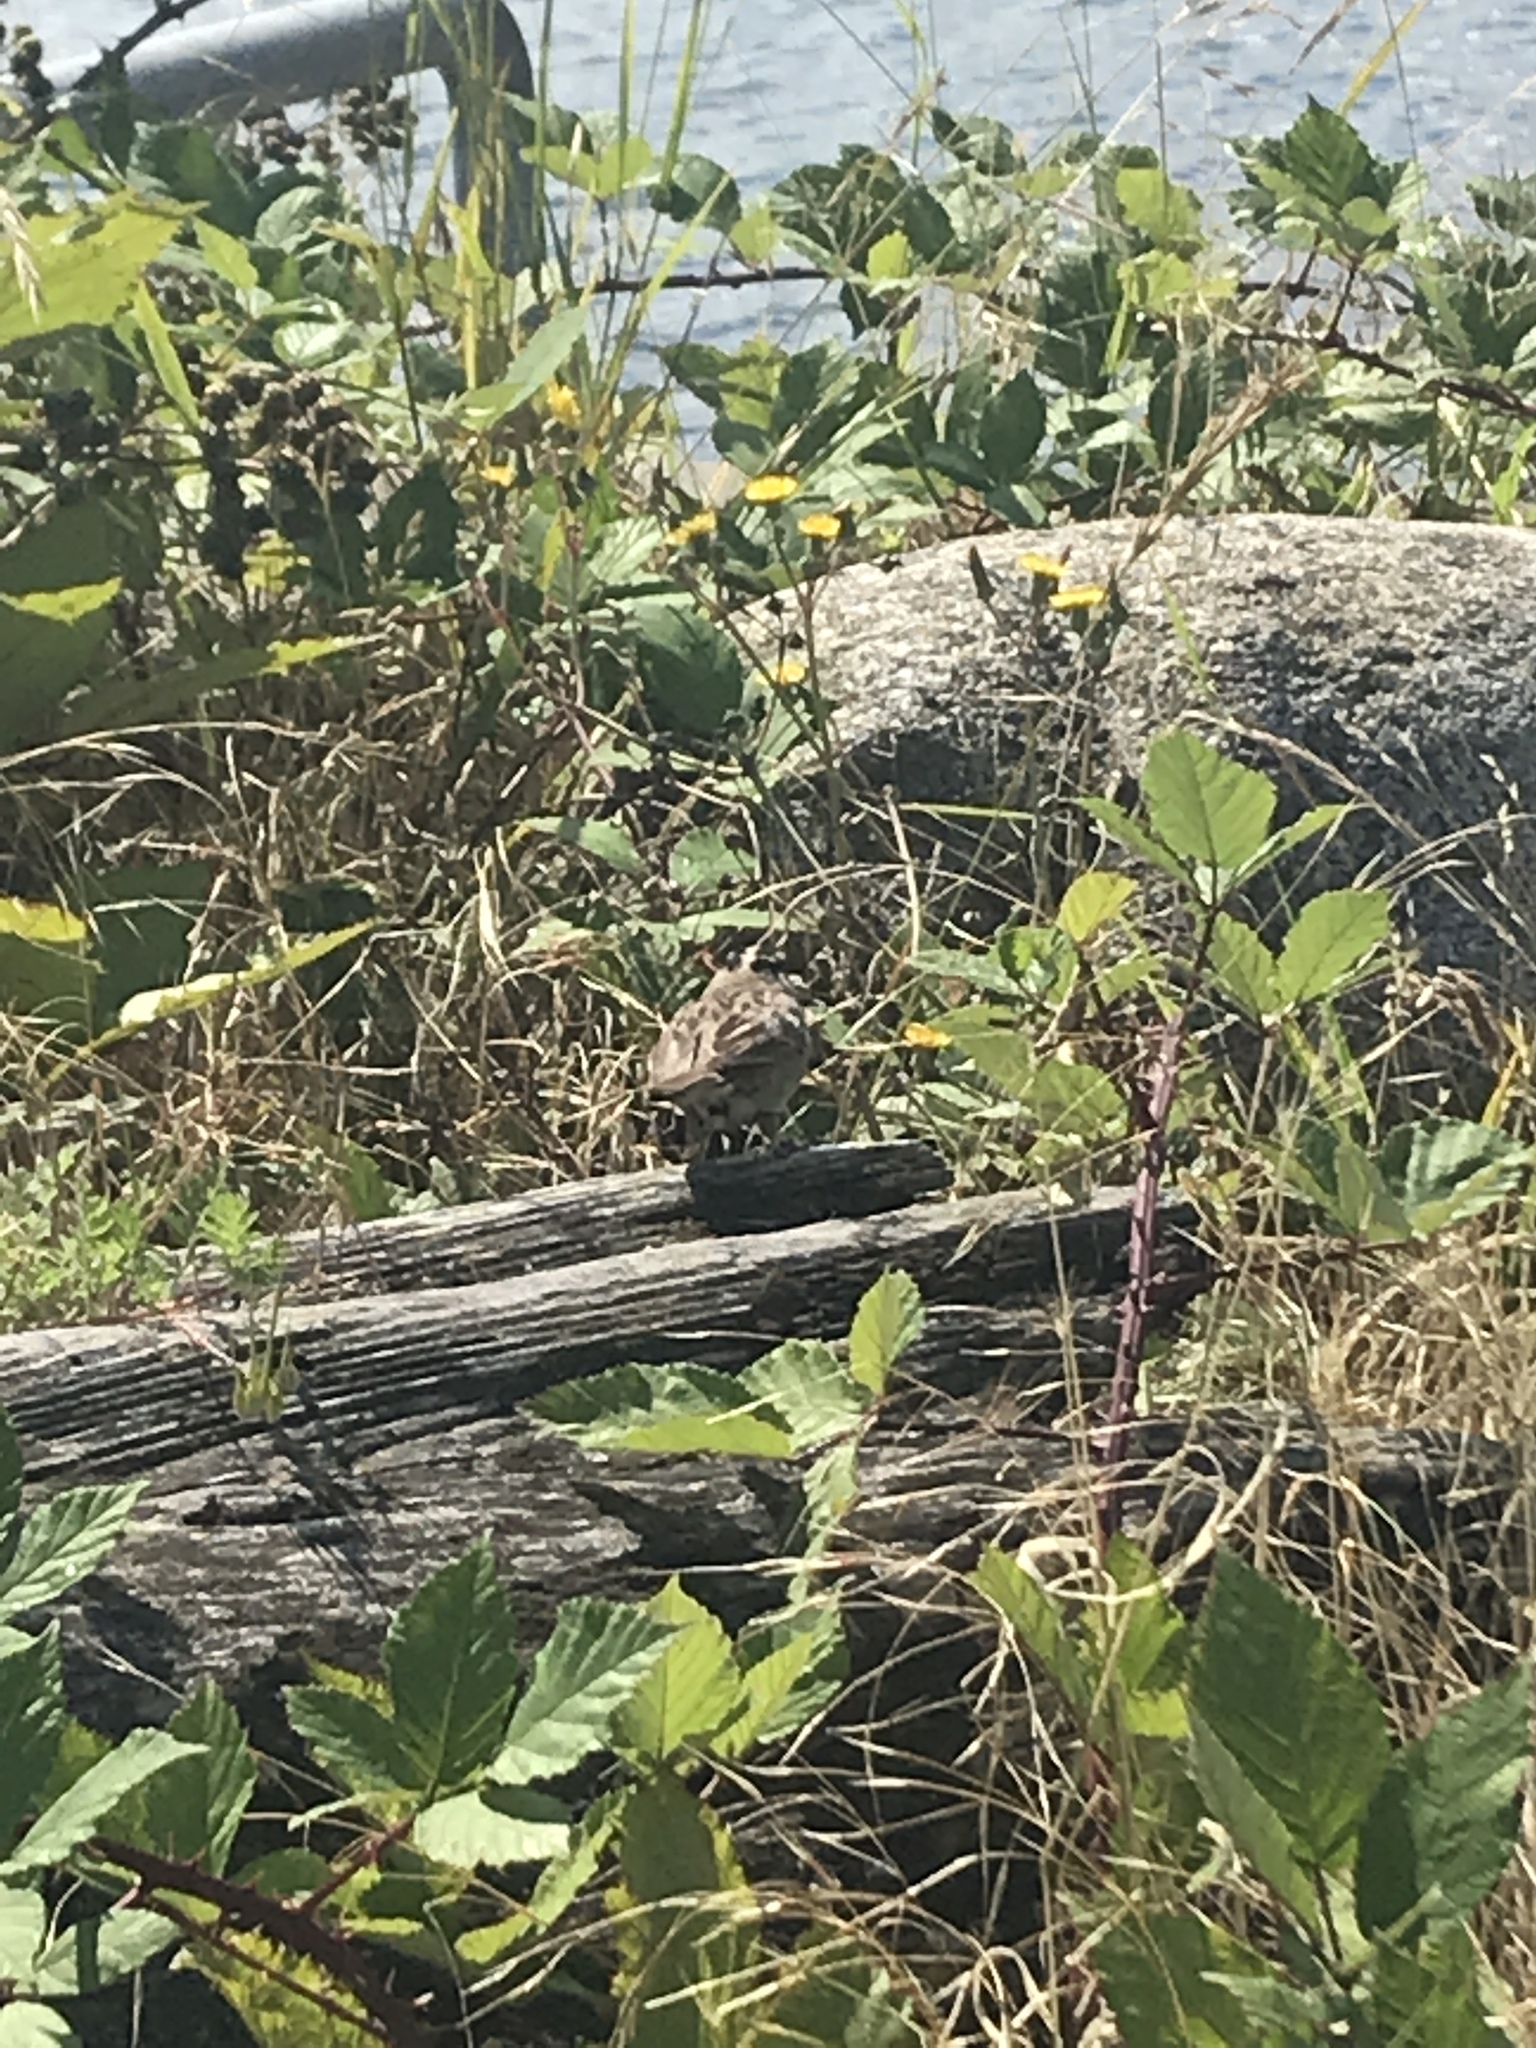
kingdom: Animalia
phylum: Chordata
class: Aves
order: Passeriformes
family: Passerellidae
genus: Zonotrichia
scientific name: Zonotrichia leucophrys
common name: White-crowned sparrow
